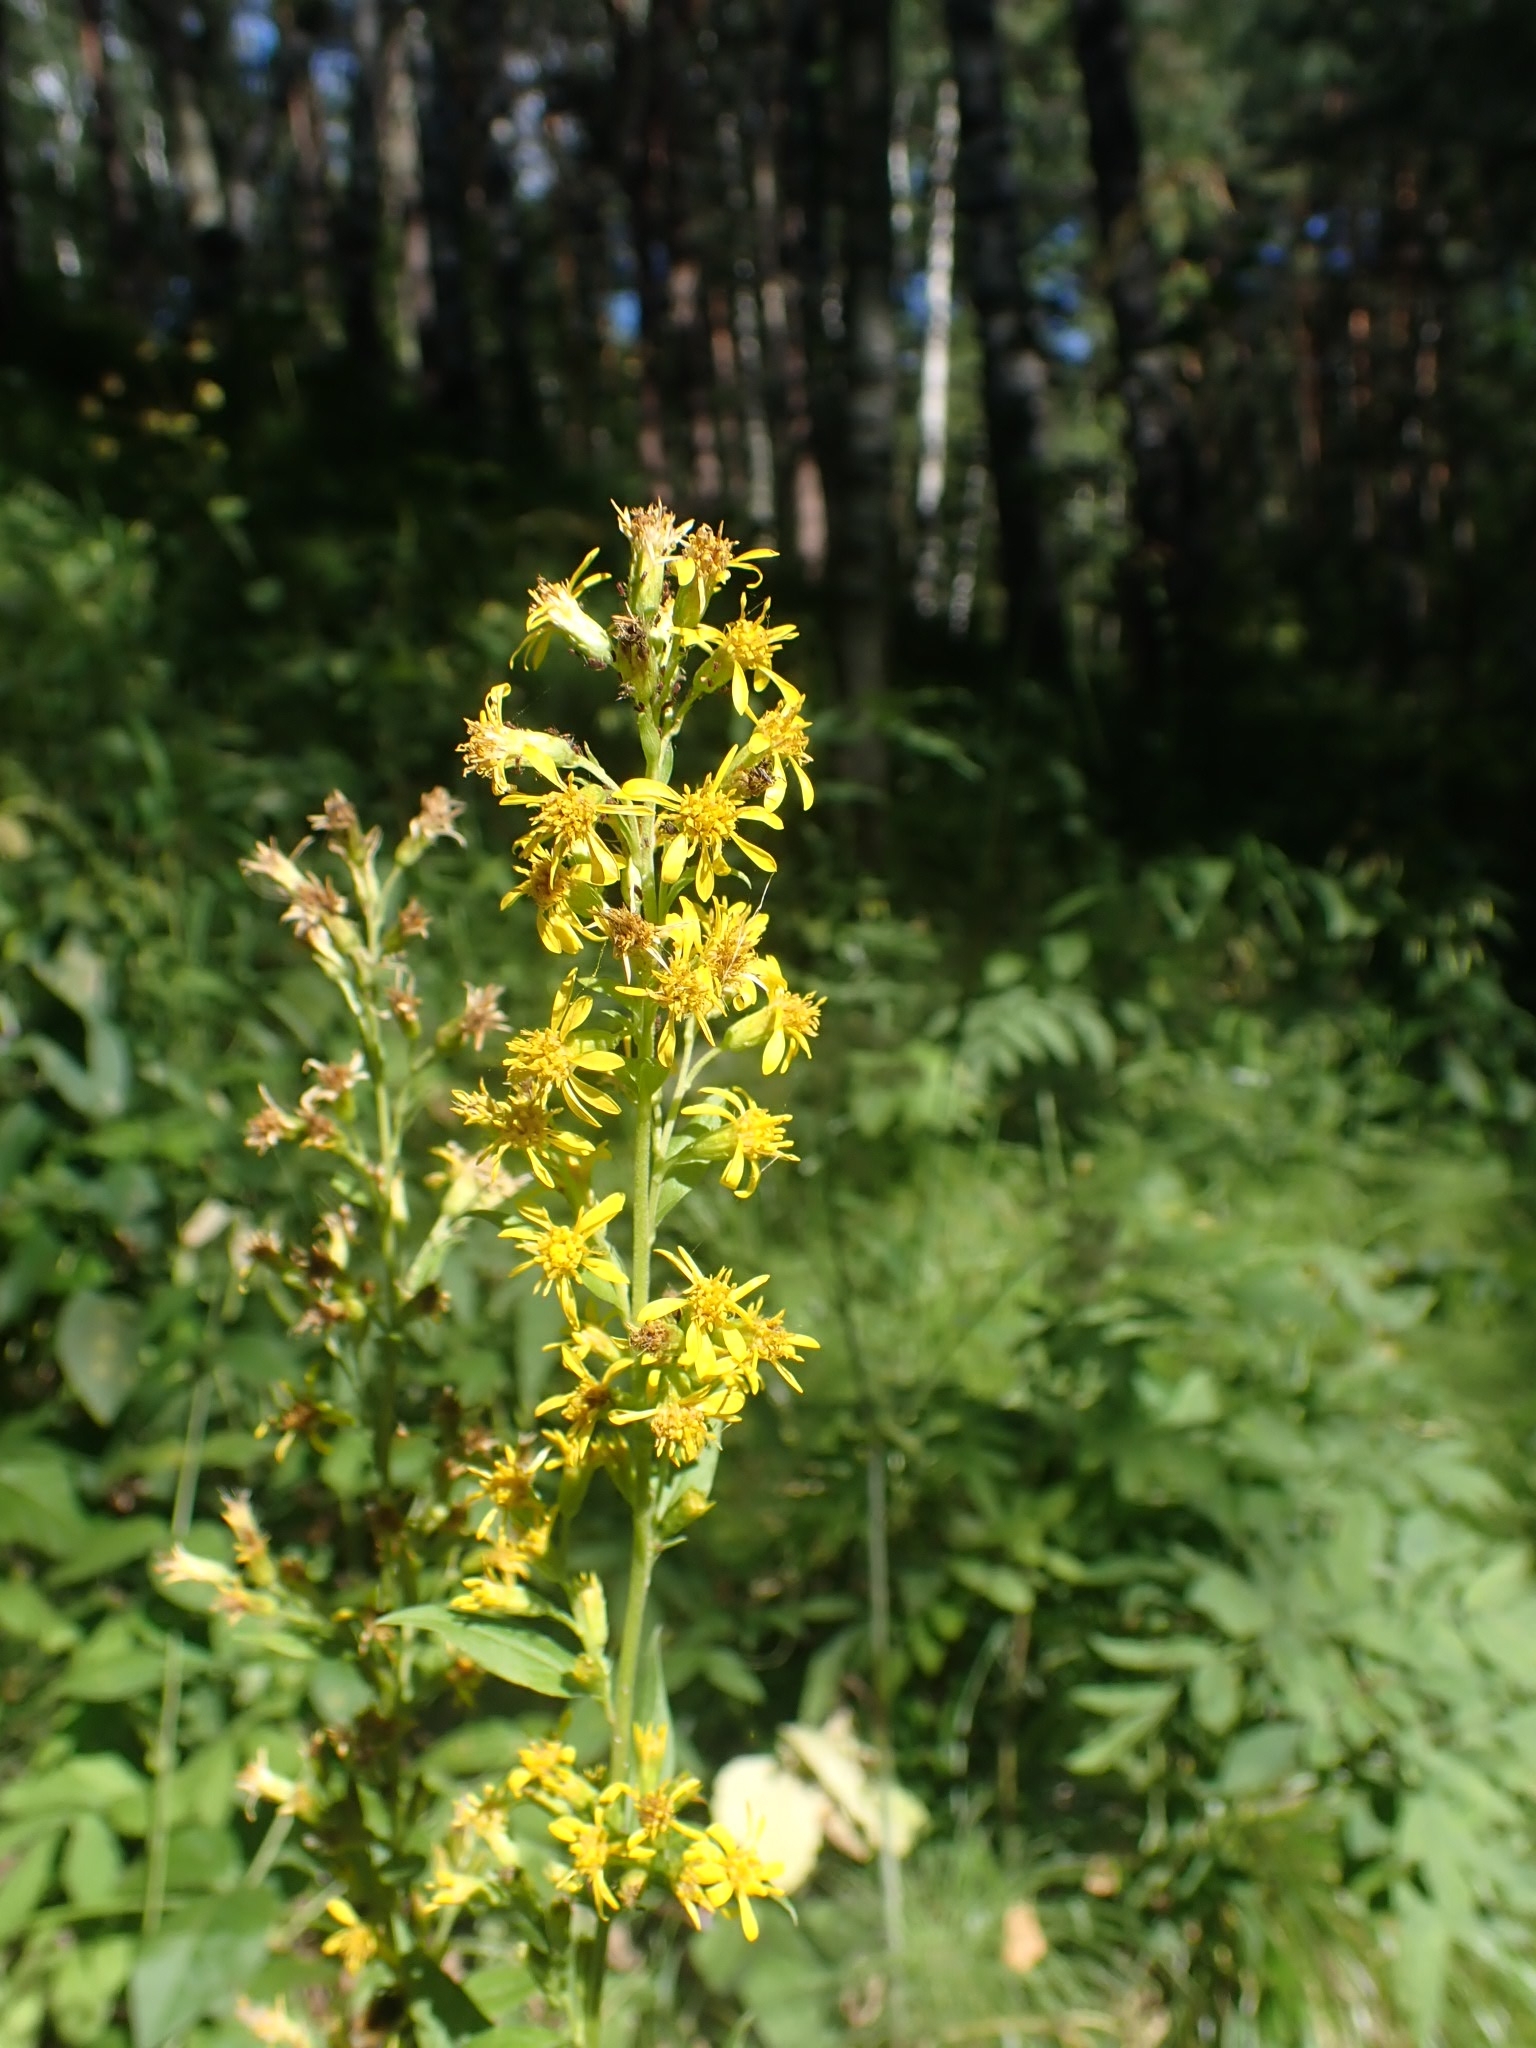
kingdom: Plantae
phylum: Tracheophyta
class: Magnoliopsida
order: Asterales
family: Asteraceae
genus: Solidago
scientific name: Solidago virgaurea
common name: Goldenrod
